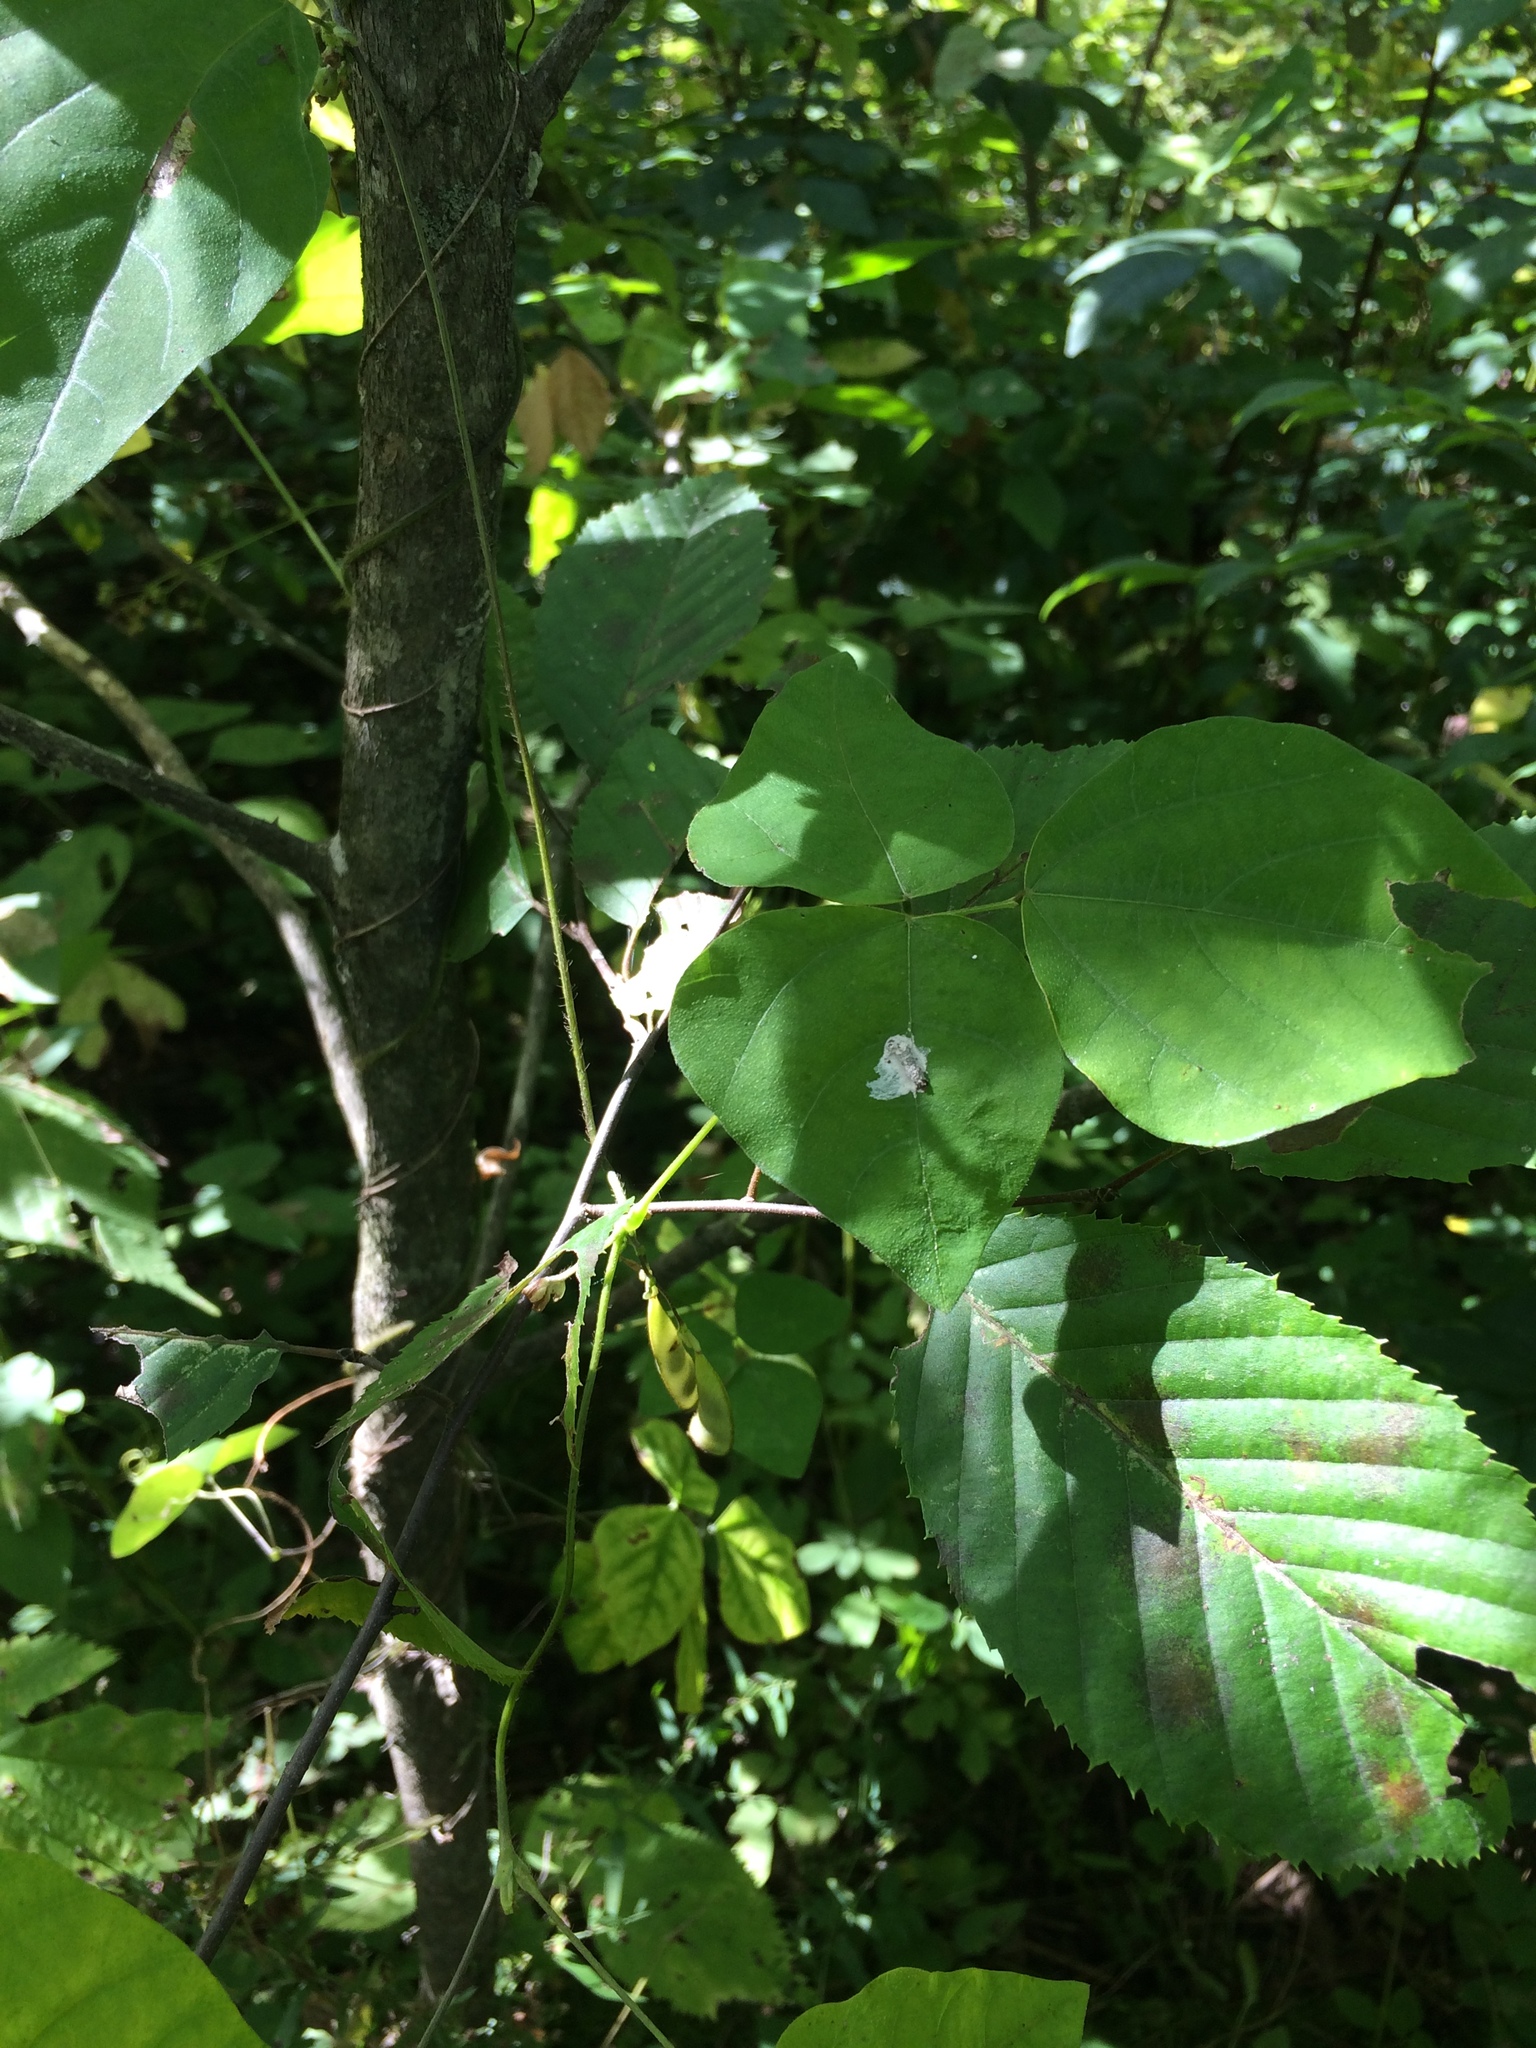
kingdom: Plantae
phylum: Tracheophyta
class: Magnoliopsida
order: Fabales
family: Fabaceae
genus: Amphicarpaea
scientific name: Amphicarpaea bracteata
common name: American hog peanut
